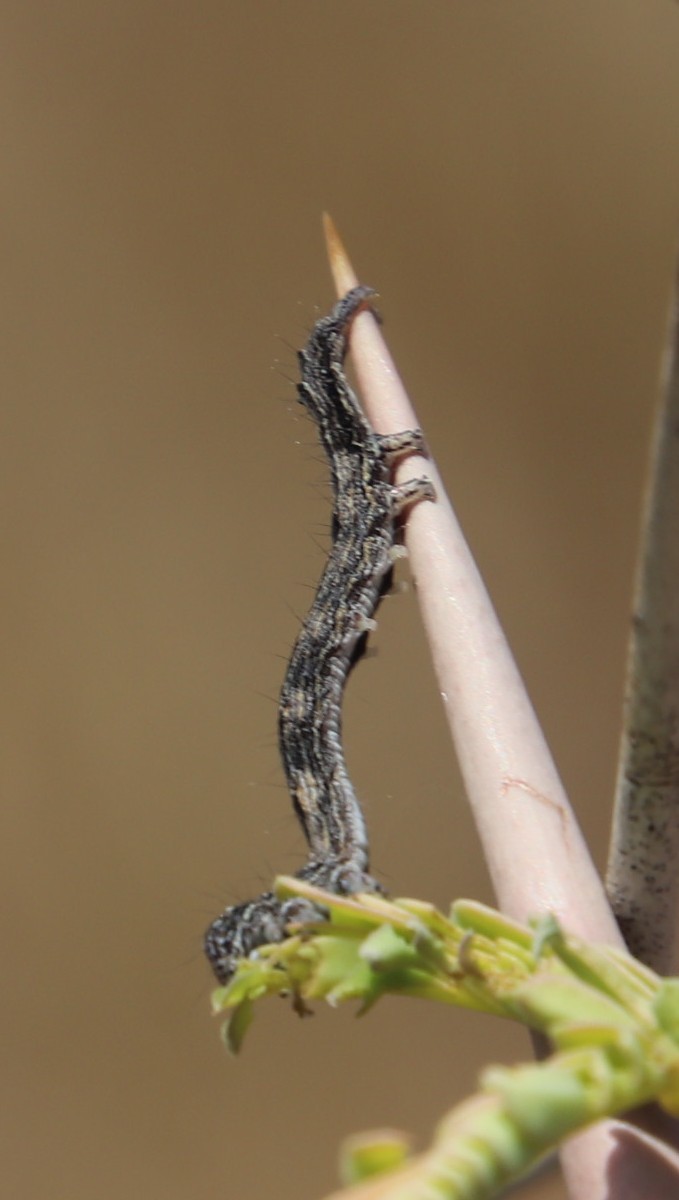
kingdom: Plantae
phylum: Tracheophyta
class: Magnoliopsida
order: Fabales
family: Fabaceae
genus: Vachellia
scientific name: Vachellia erioloba
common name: Camel thorn
